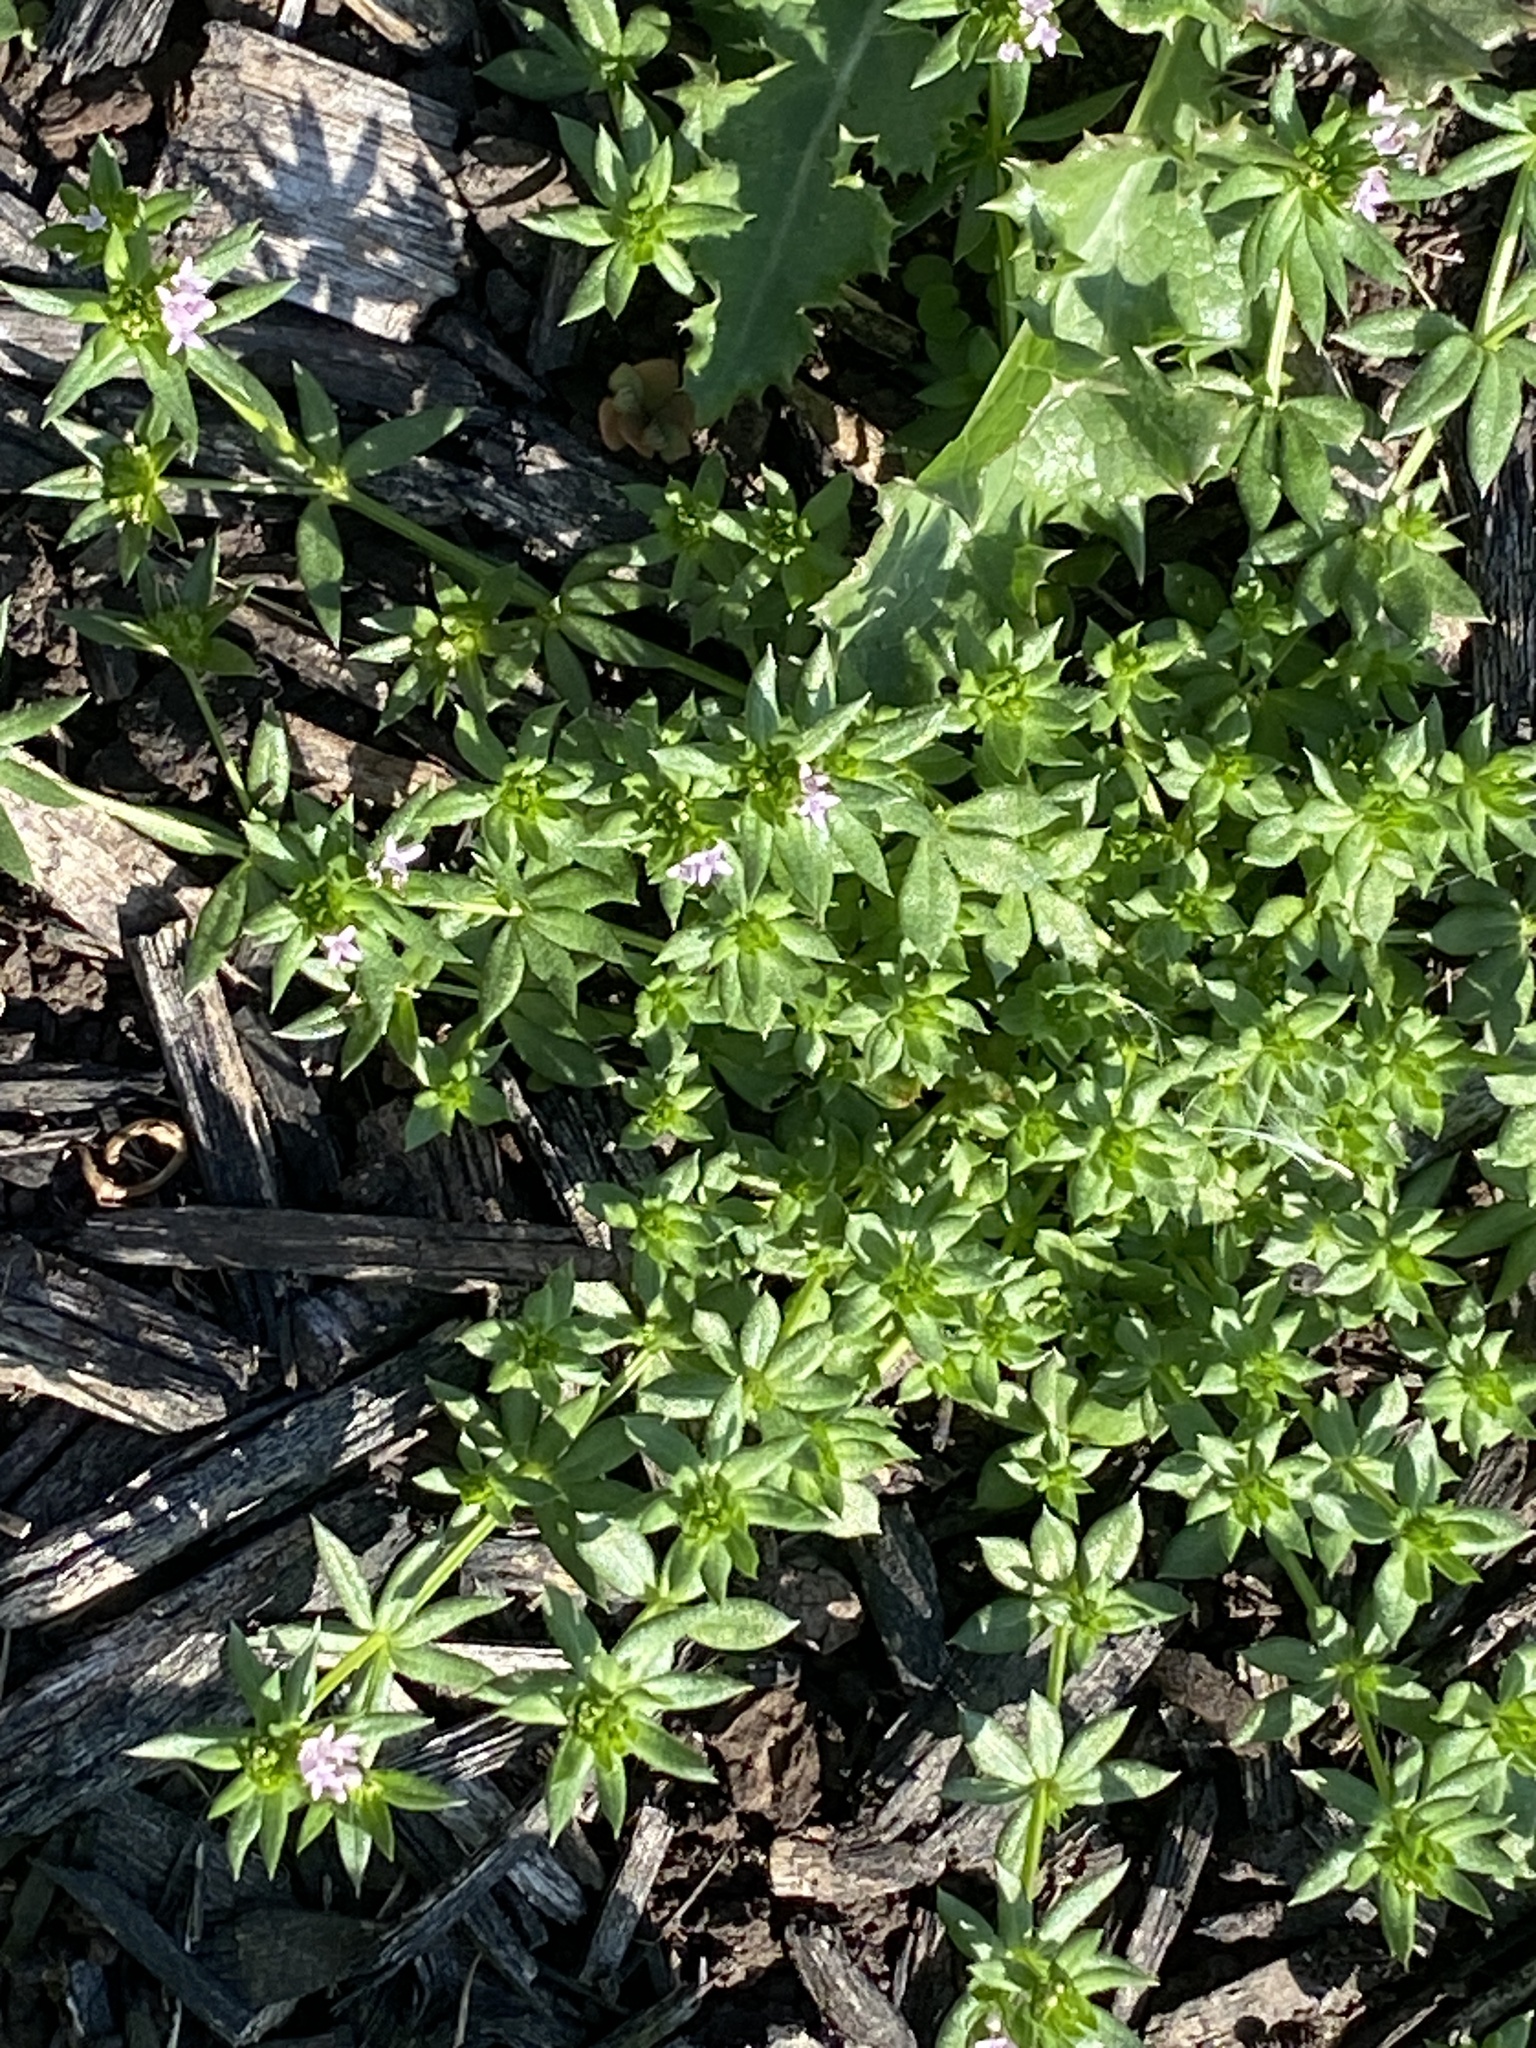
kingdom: Plantae
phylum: Tracheophyta
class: Magnoliopsida
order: Gentianales
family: Rubiaceae
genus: Sherardia
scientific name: Sherardia arvensis
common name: Field madder
